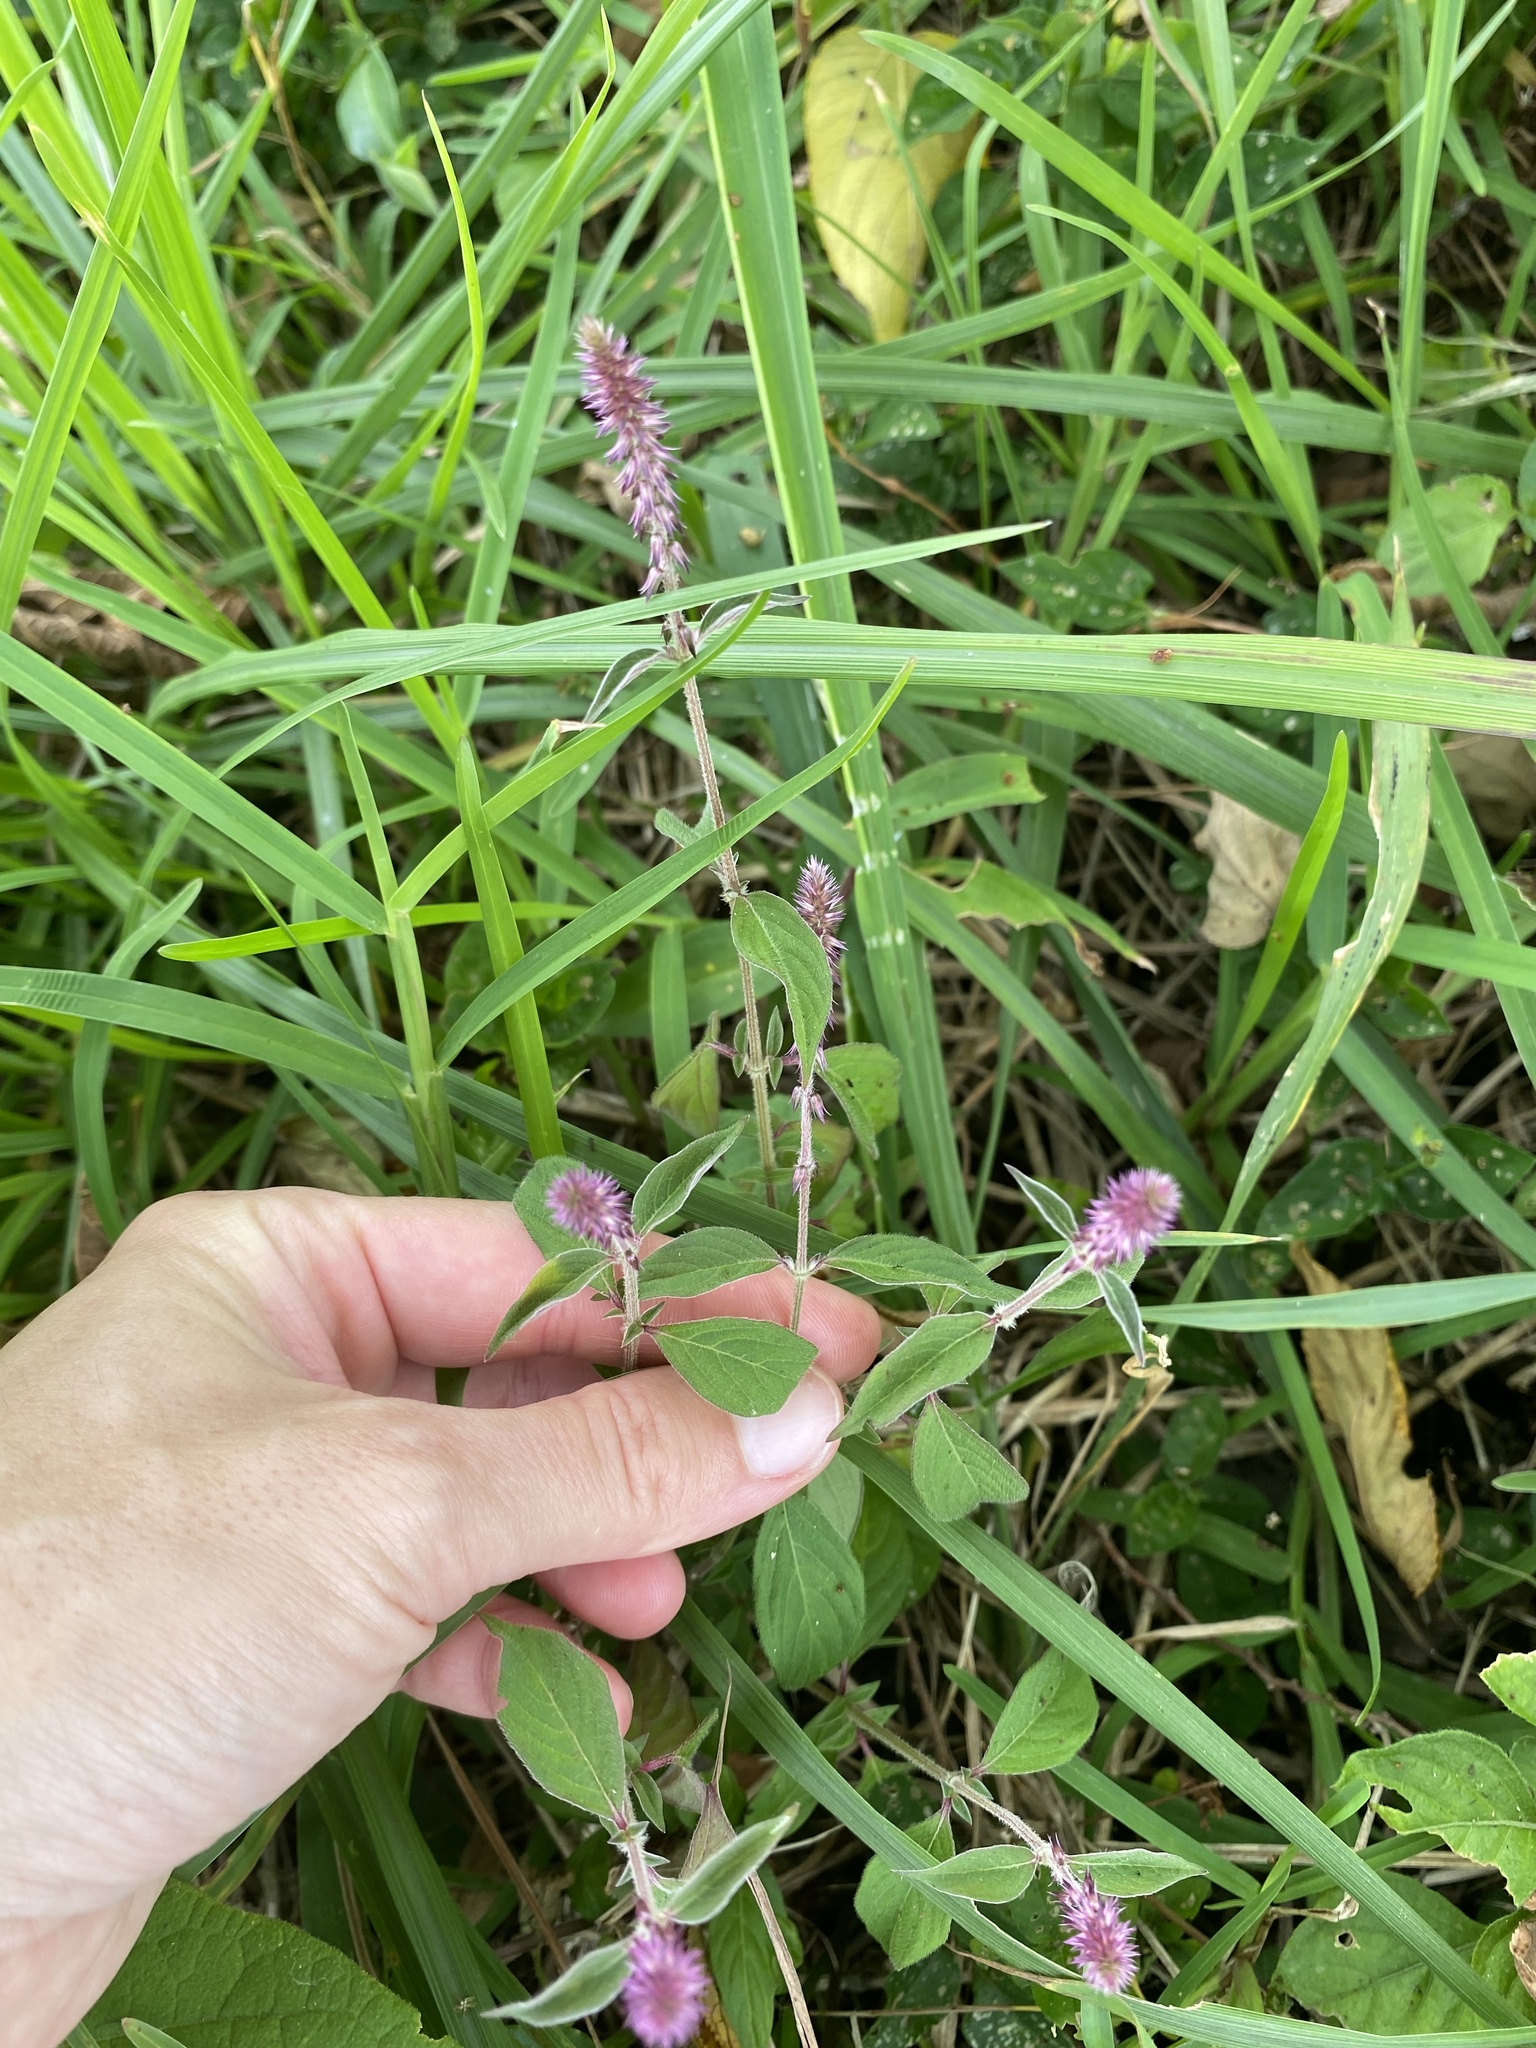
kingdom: Plantae
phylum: Tracheophyta
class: Magnoliopsida
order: Caryophyllales
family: Amaranthaceae
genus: Achyranthes
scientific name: Achyranthes aspera
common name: Devil's horsewhip
